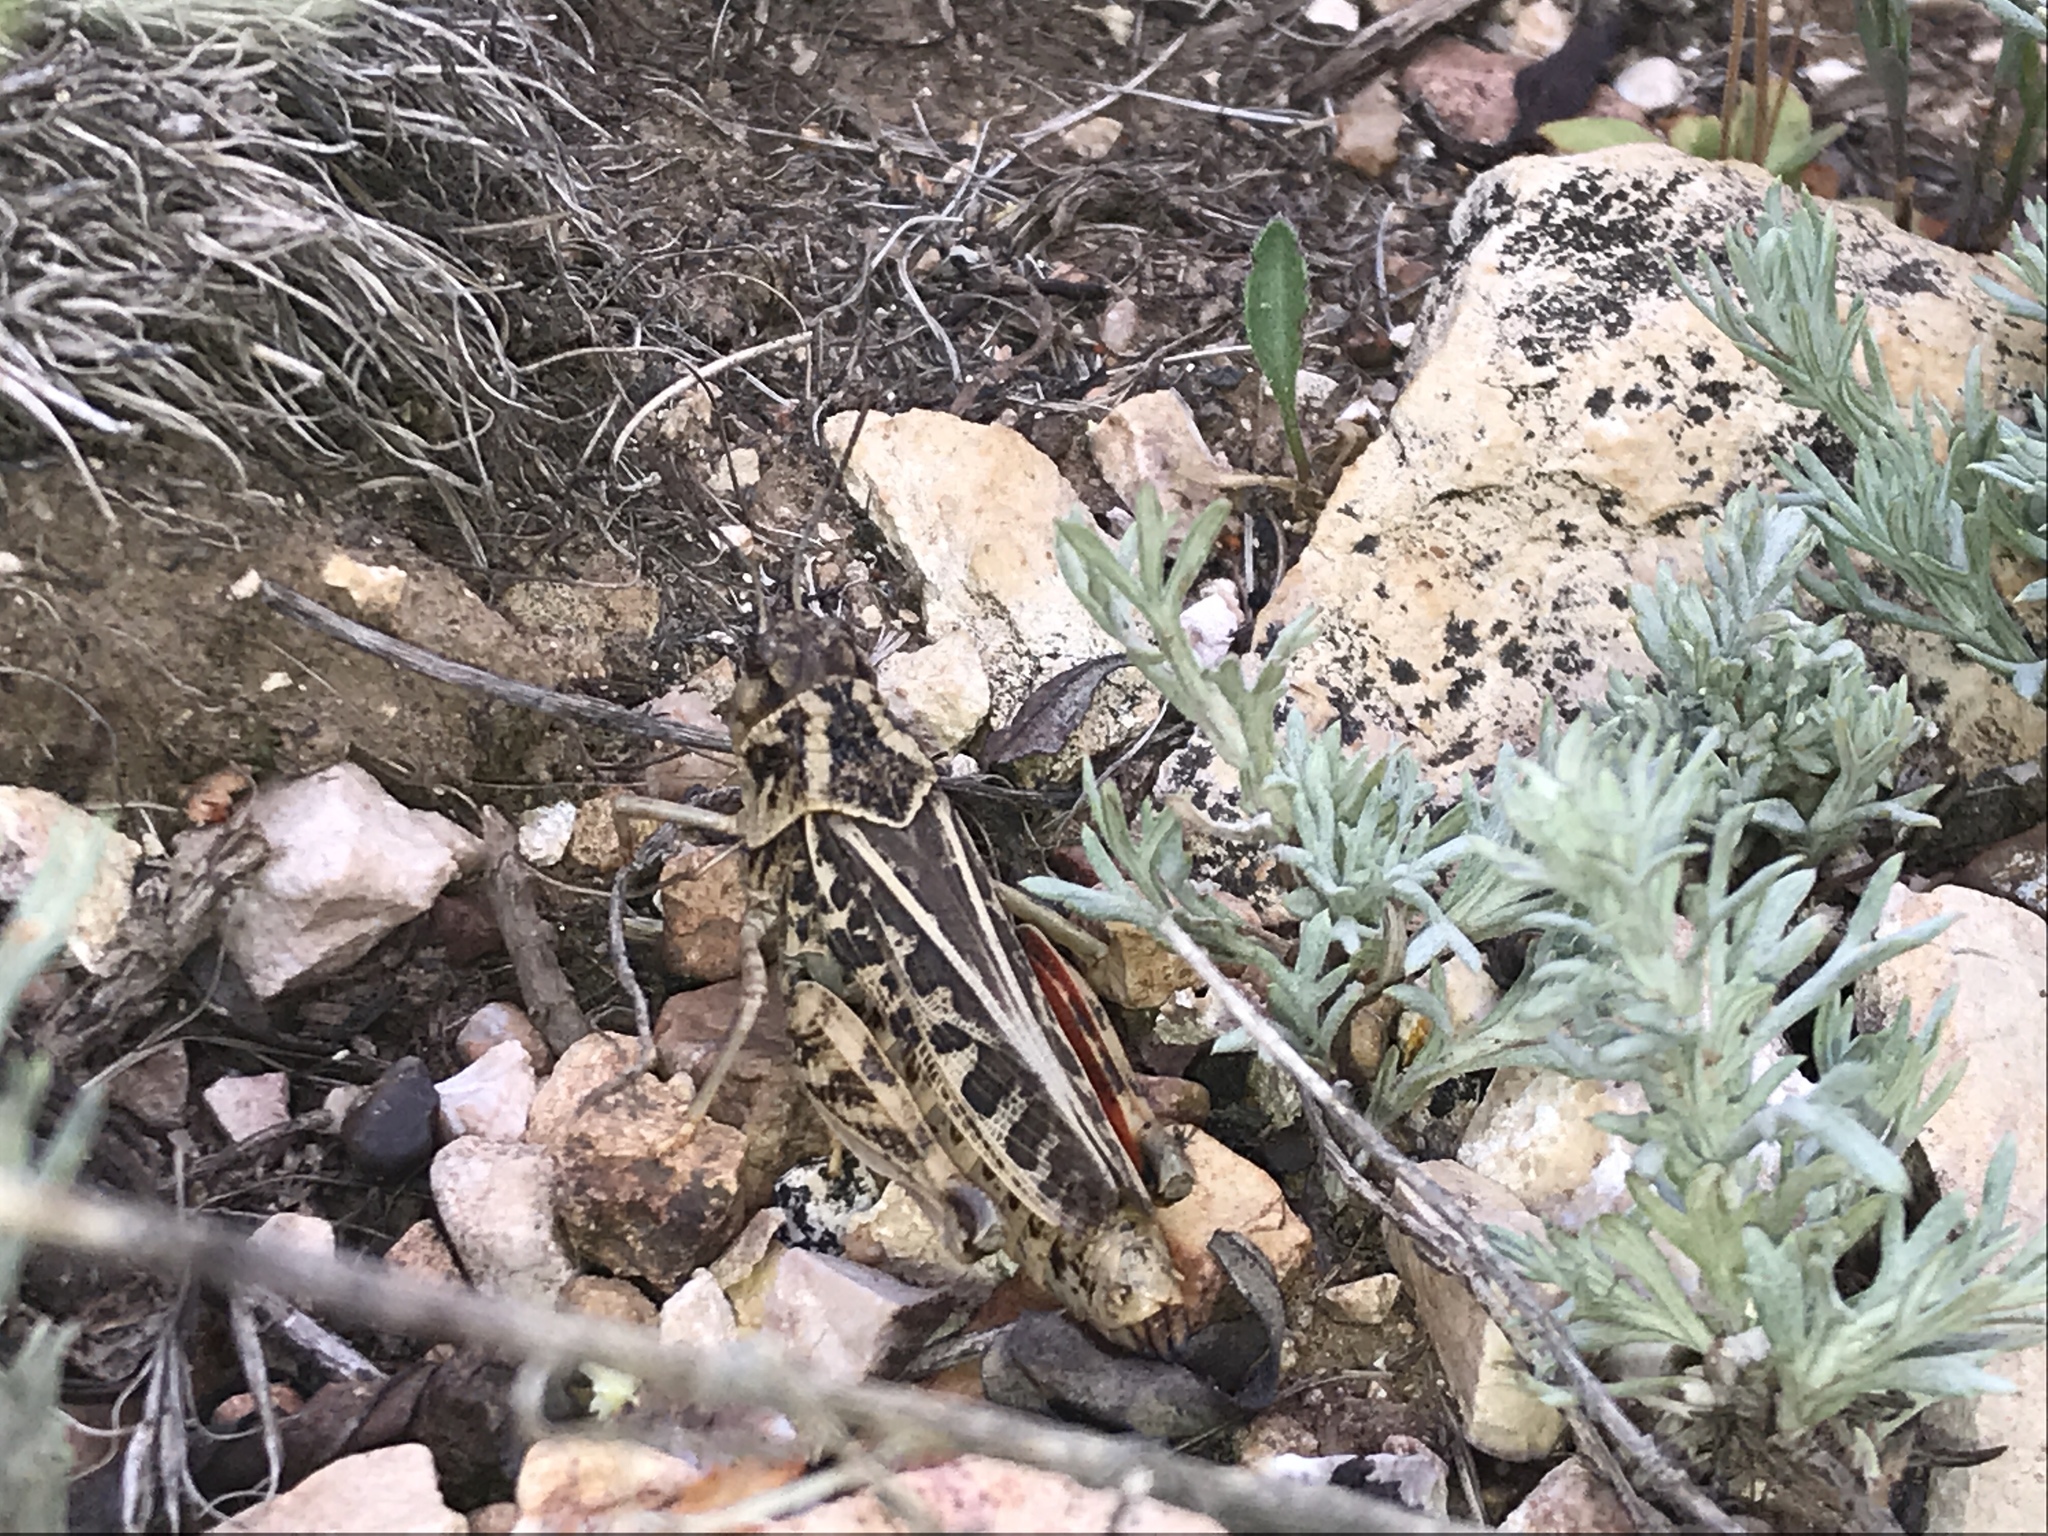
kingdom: Animalia
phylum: Arthropoda
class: Insecta
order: Orthoptera
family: Acrididae
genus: Xanthippus
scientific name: Xanthippus corallipes
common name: Redshanked grasshopper
